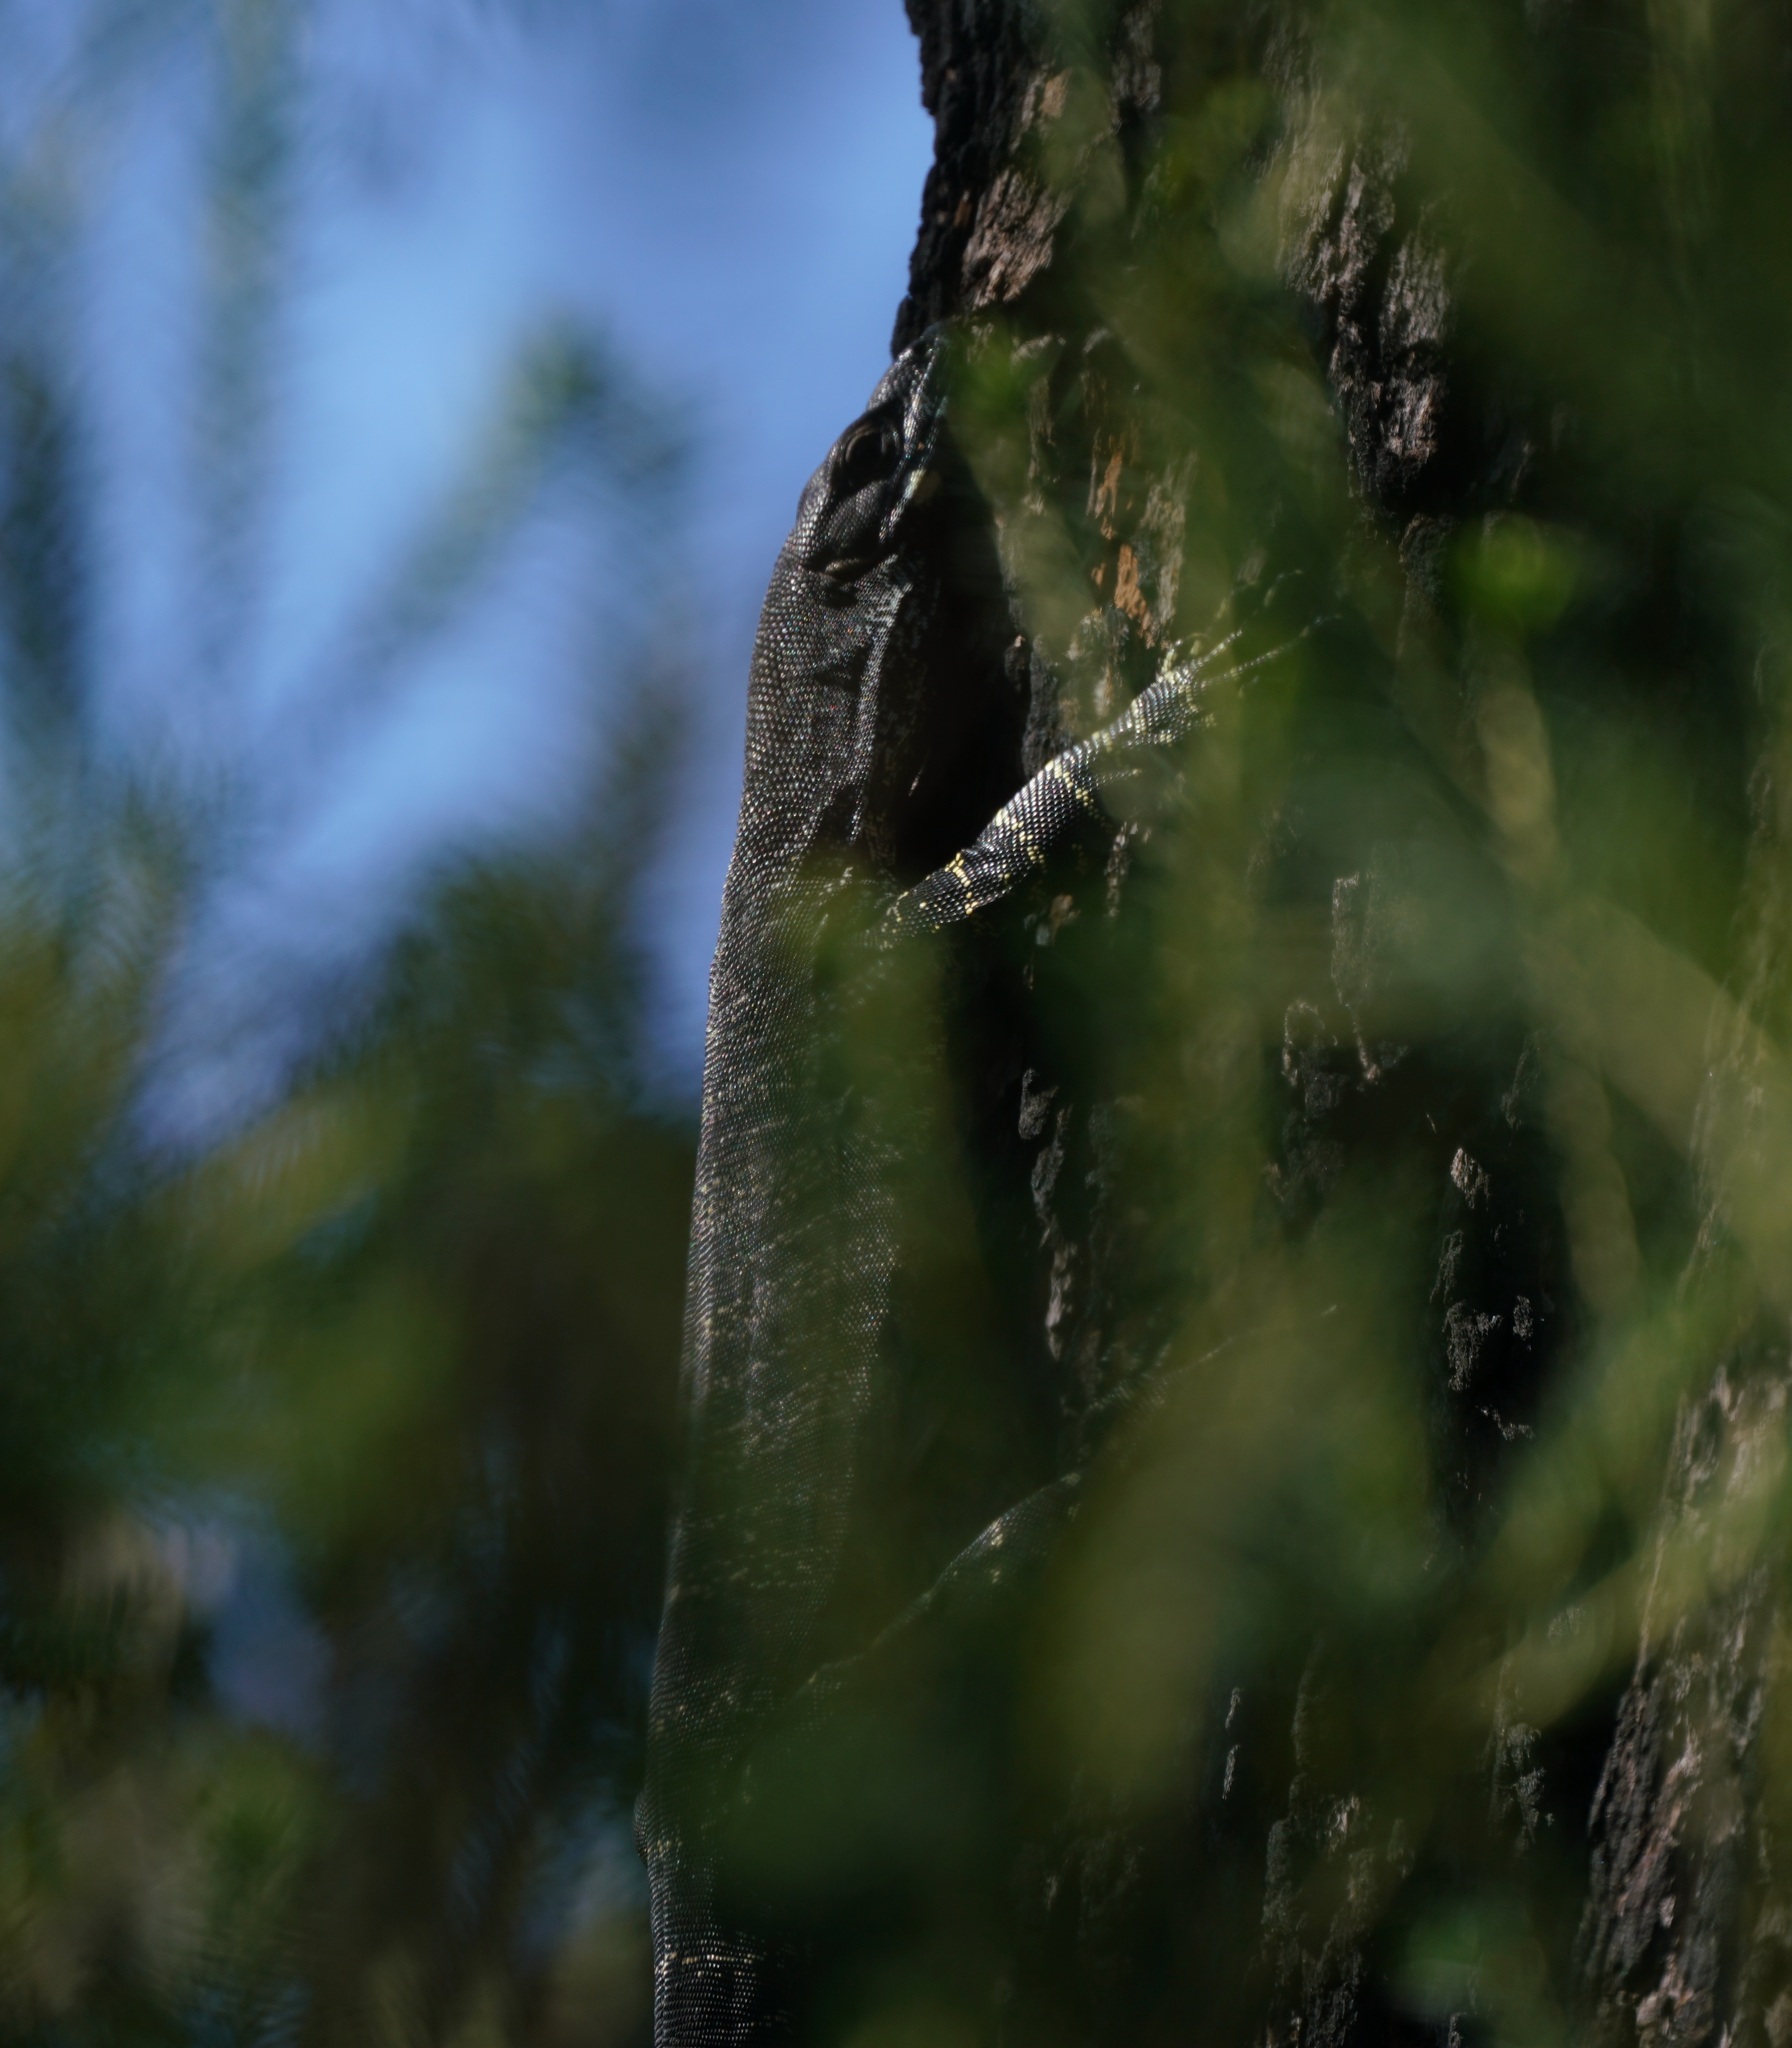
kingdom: Animalia
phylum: Chordata
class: Squamata
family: Varanidae
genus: Varanus
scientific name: Varanus varius
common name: Lace monitor
